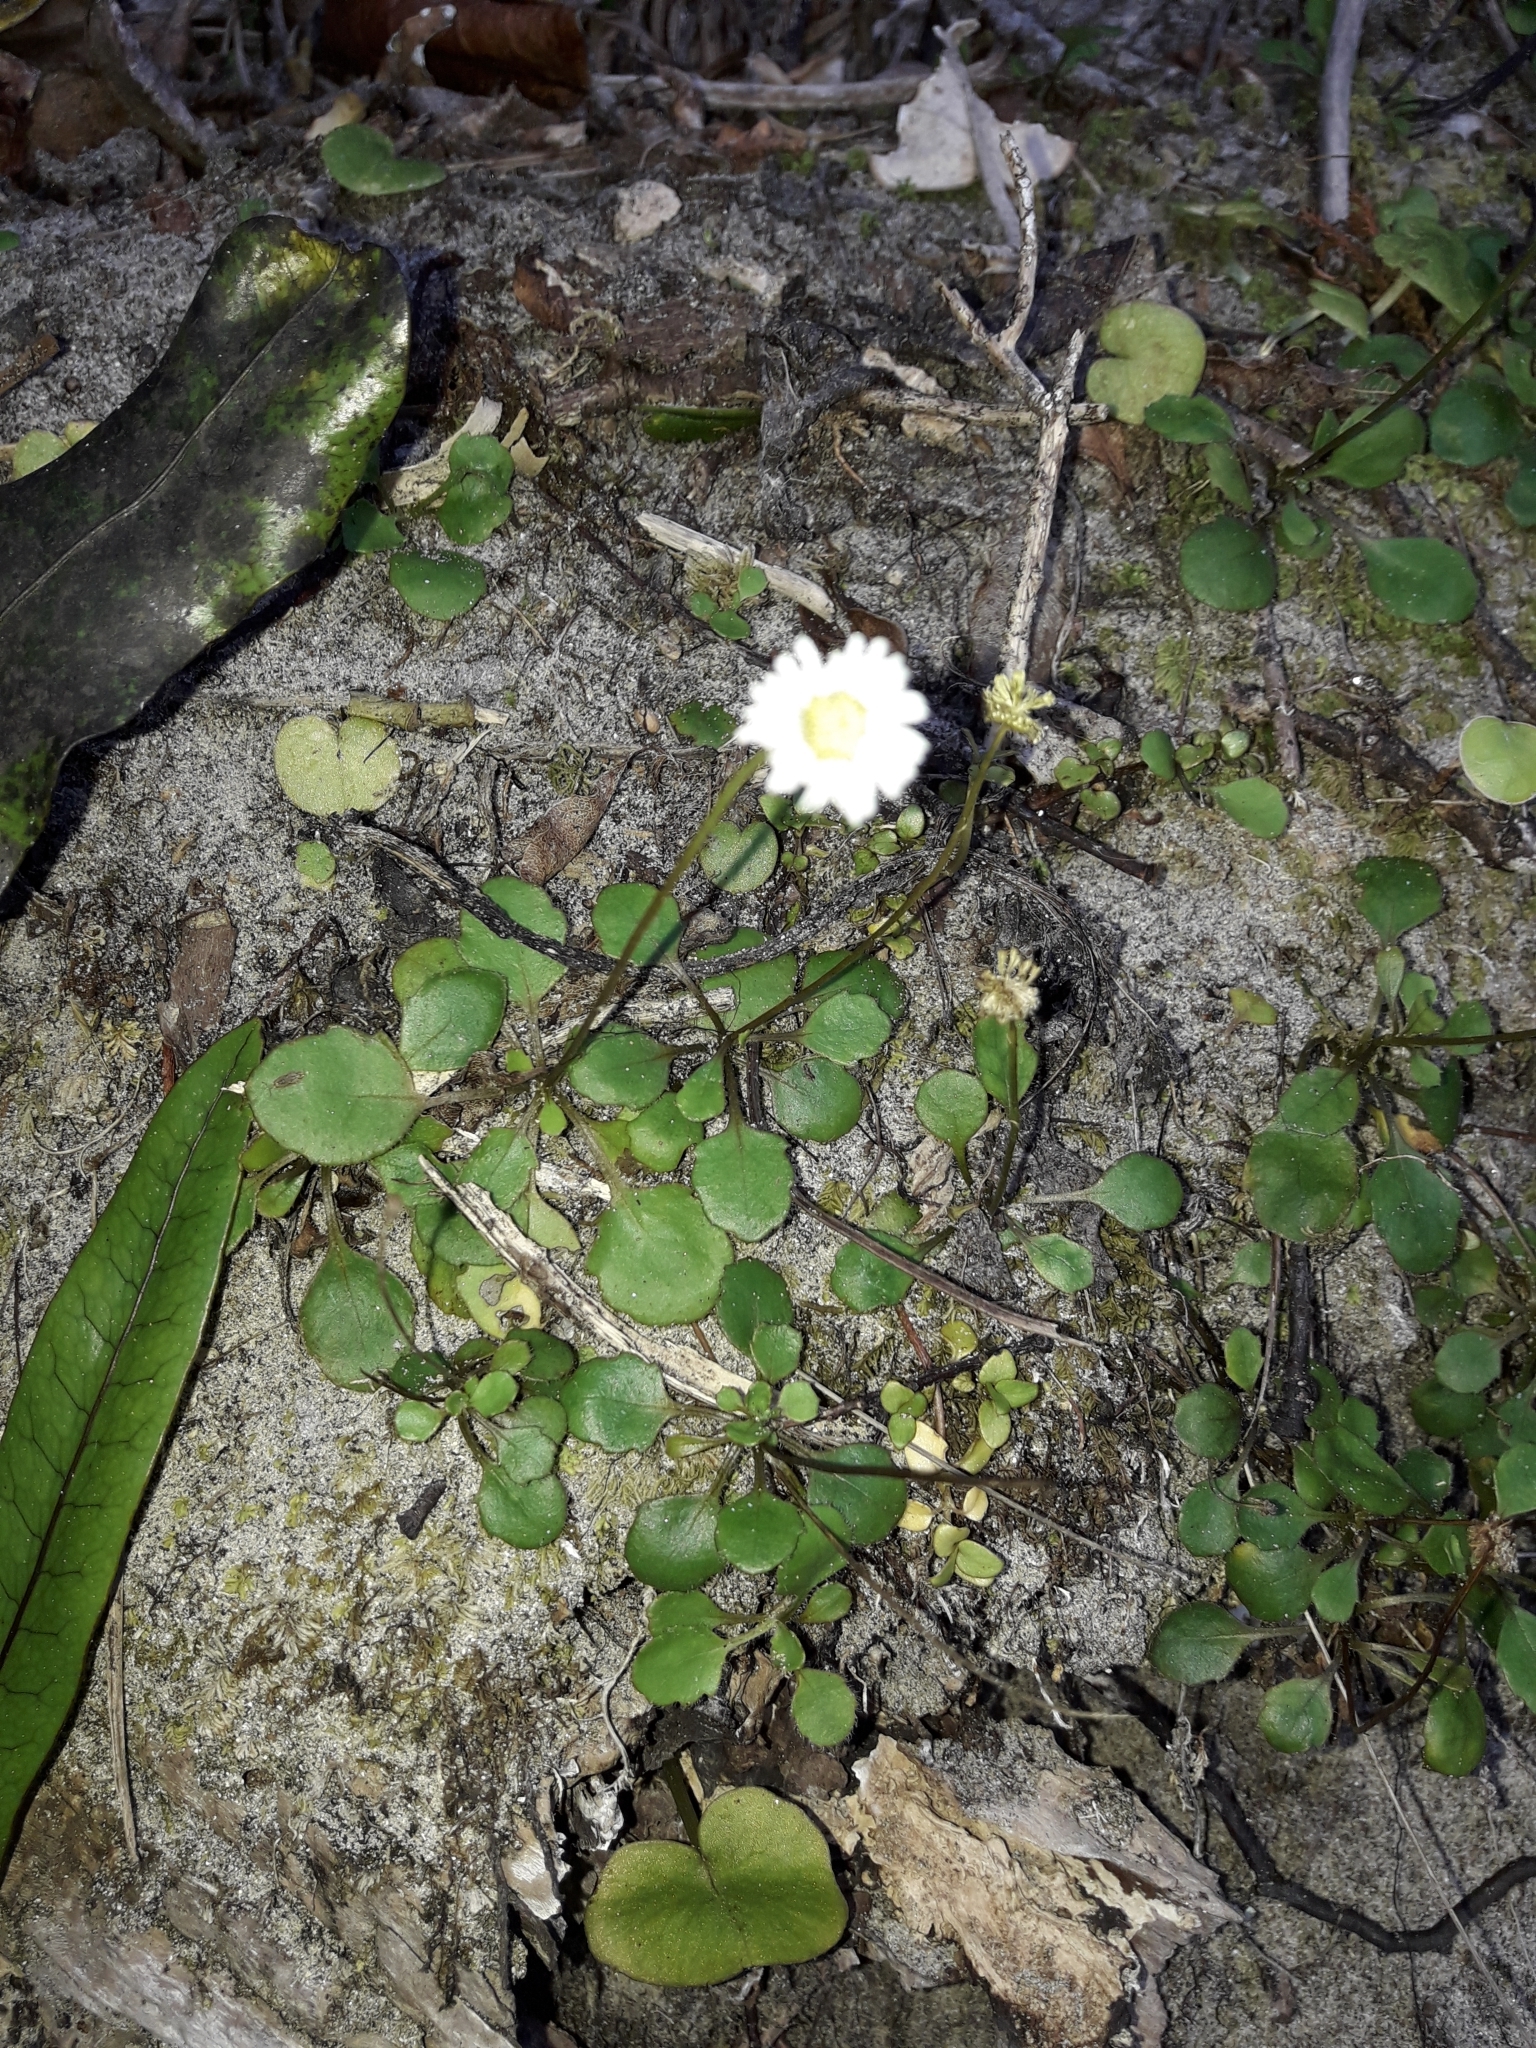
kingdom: Plantae
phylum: Tracheophyta
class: Magnoliopsida
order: Asterales
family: Asteraceae
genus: Lagenophora
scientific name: Lagenophora pumila
